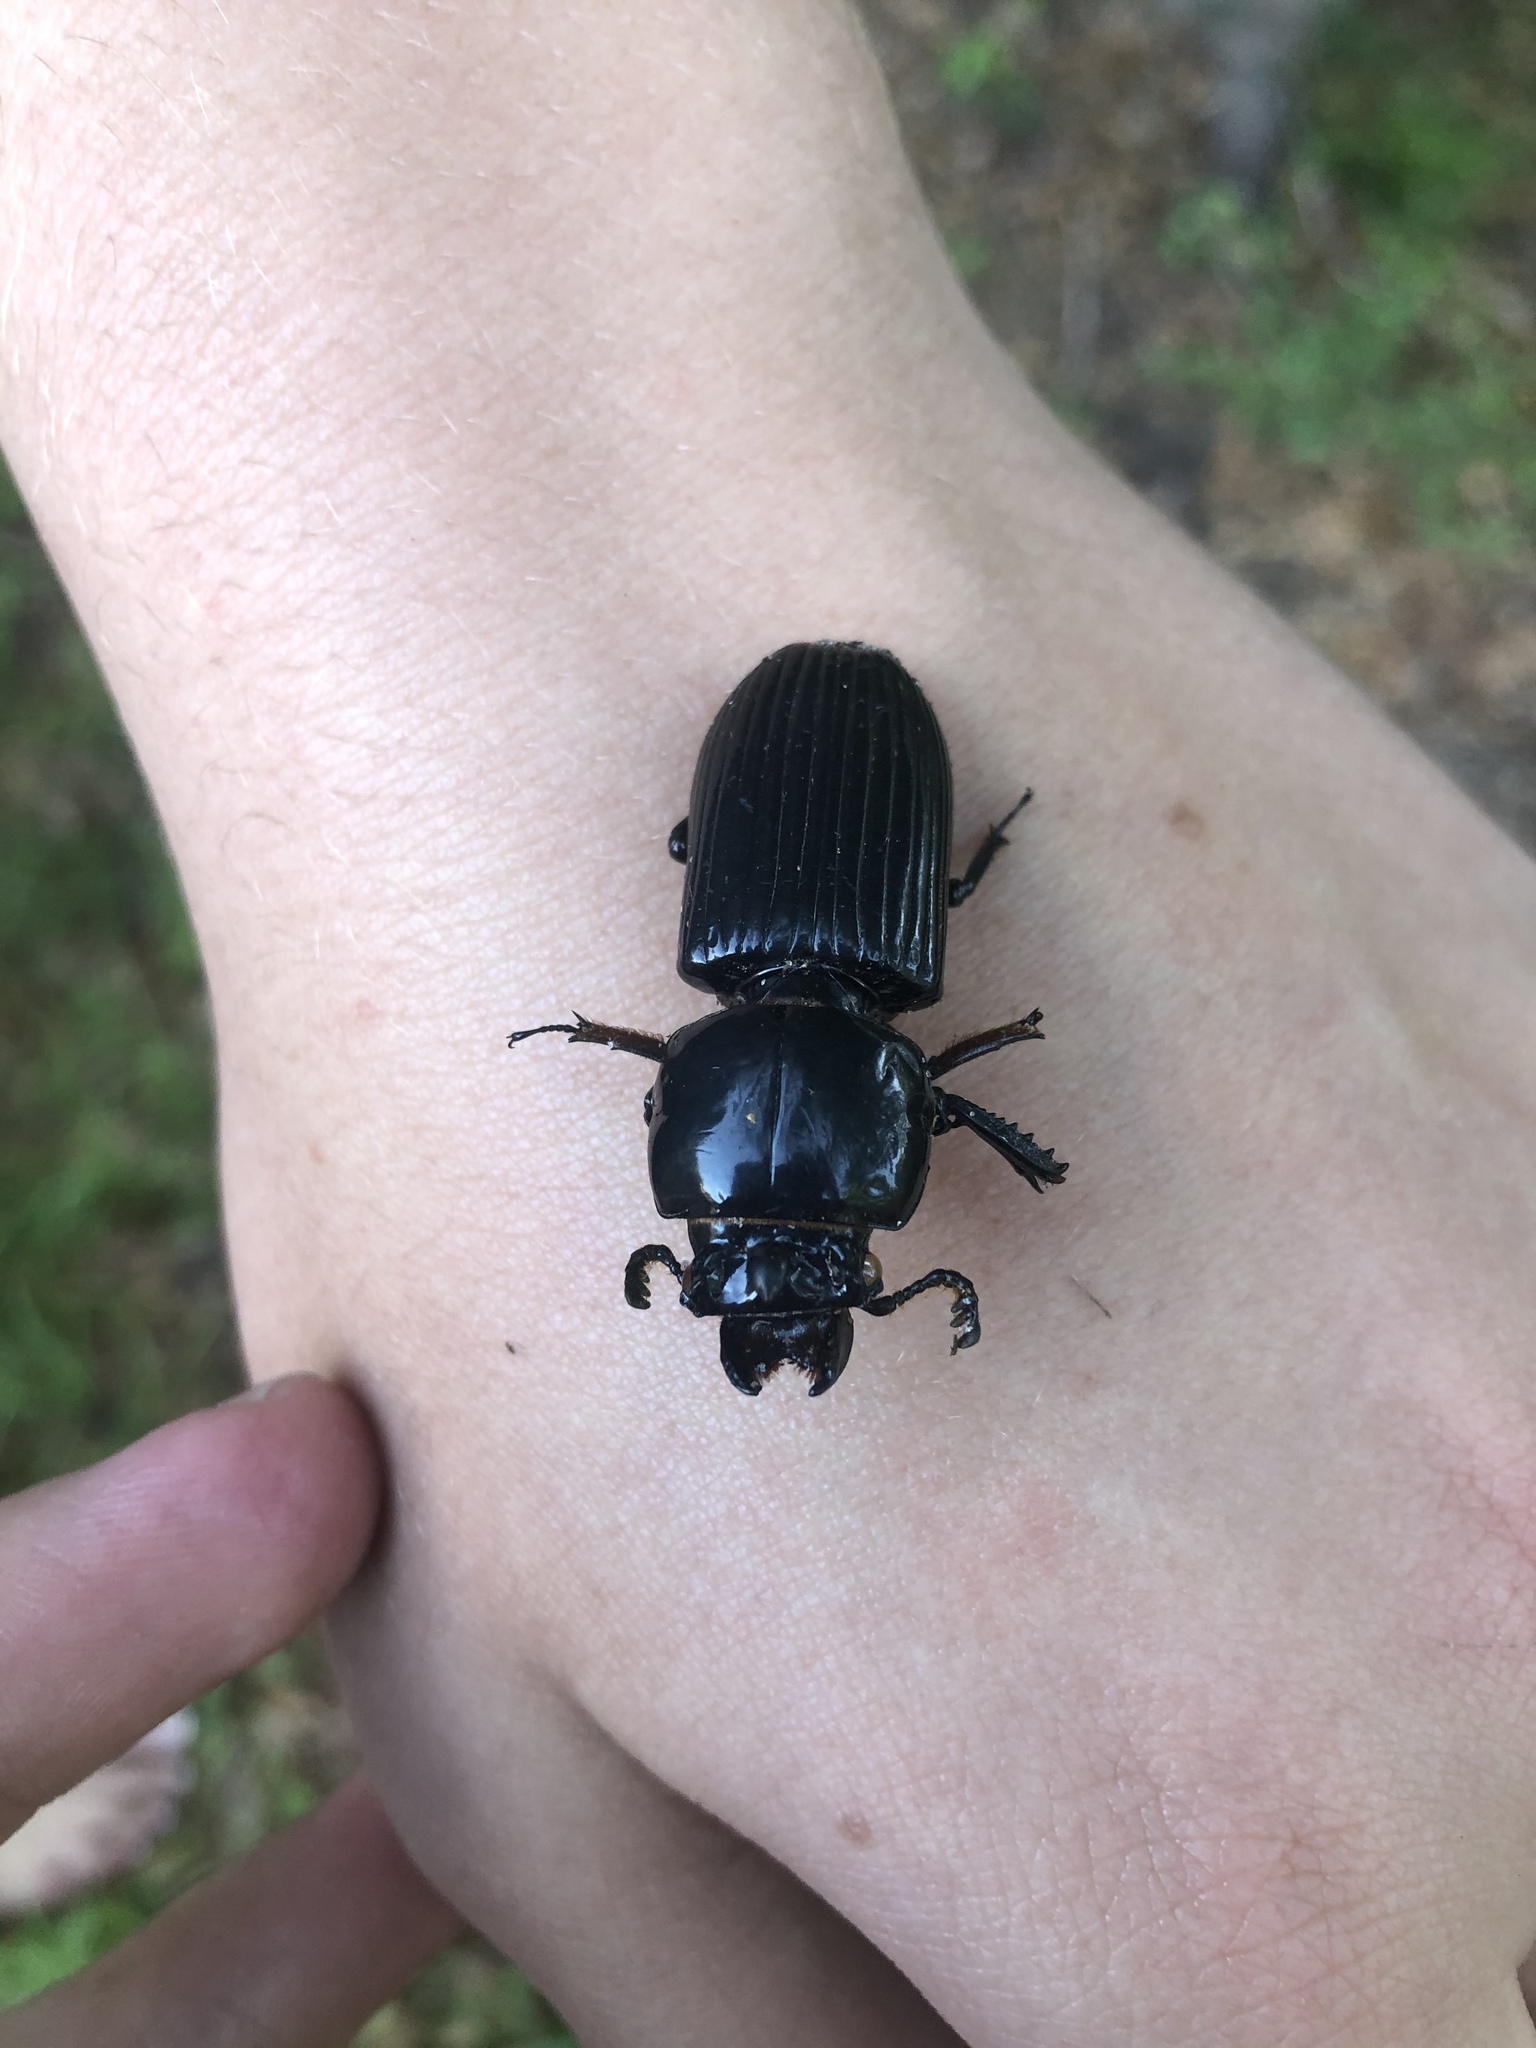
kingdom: Animalia
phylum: Arthropoda
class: Insecta
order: Coleoptera
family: Passalidae
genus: Odontotaenius
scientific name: Odontotaenius disjunctus
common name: Patent leather beetle
